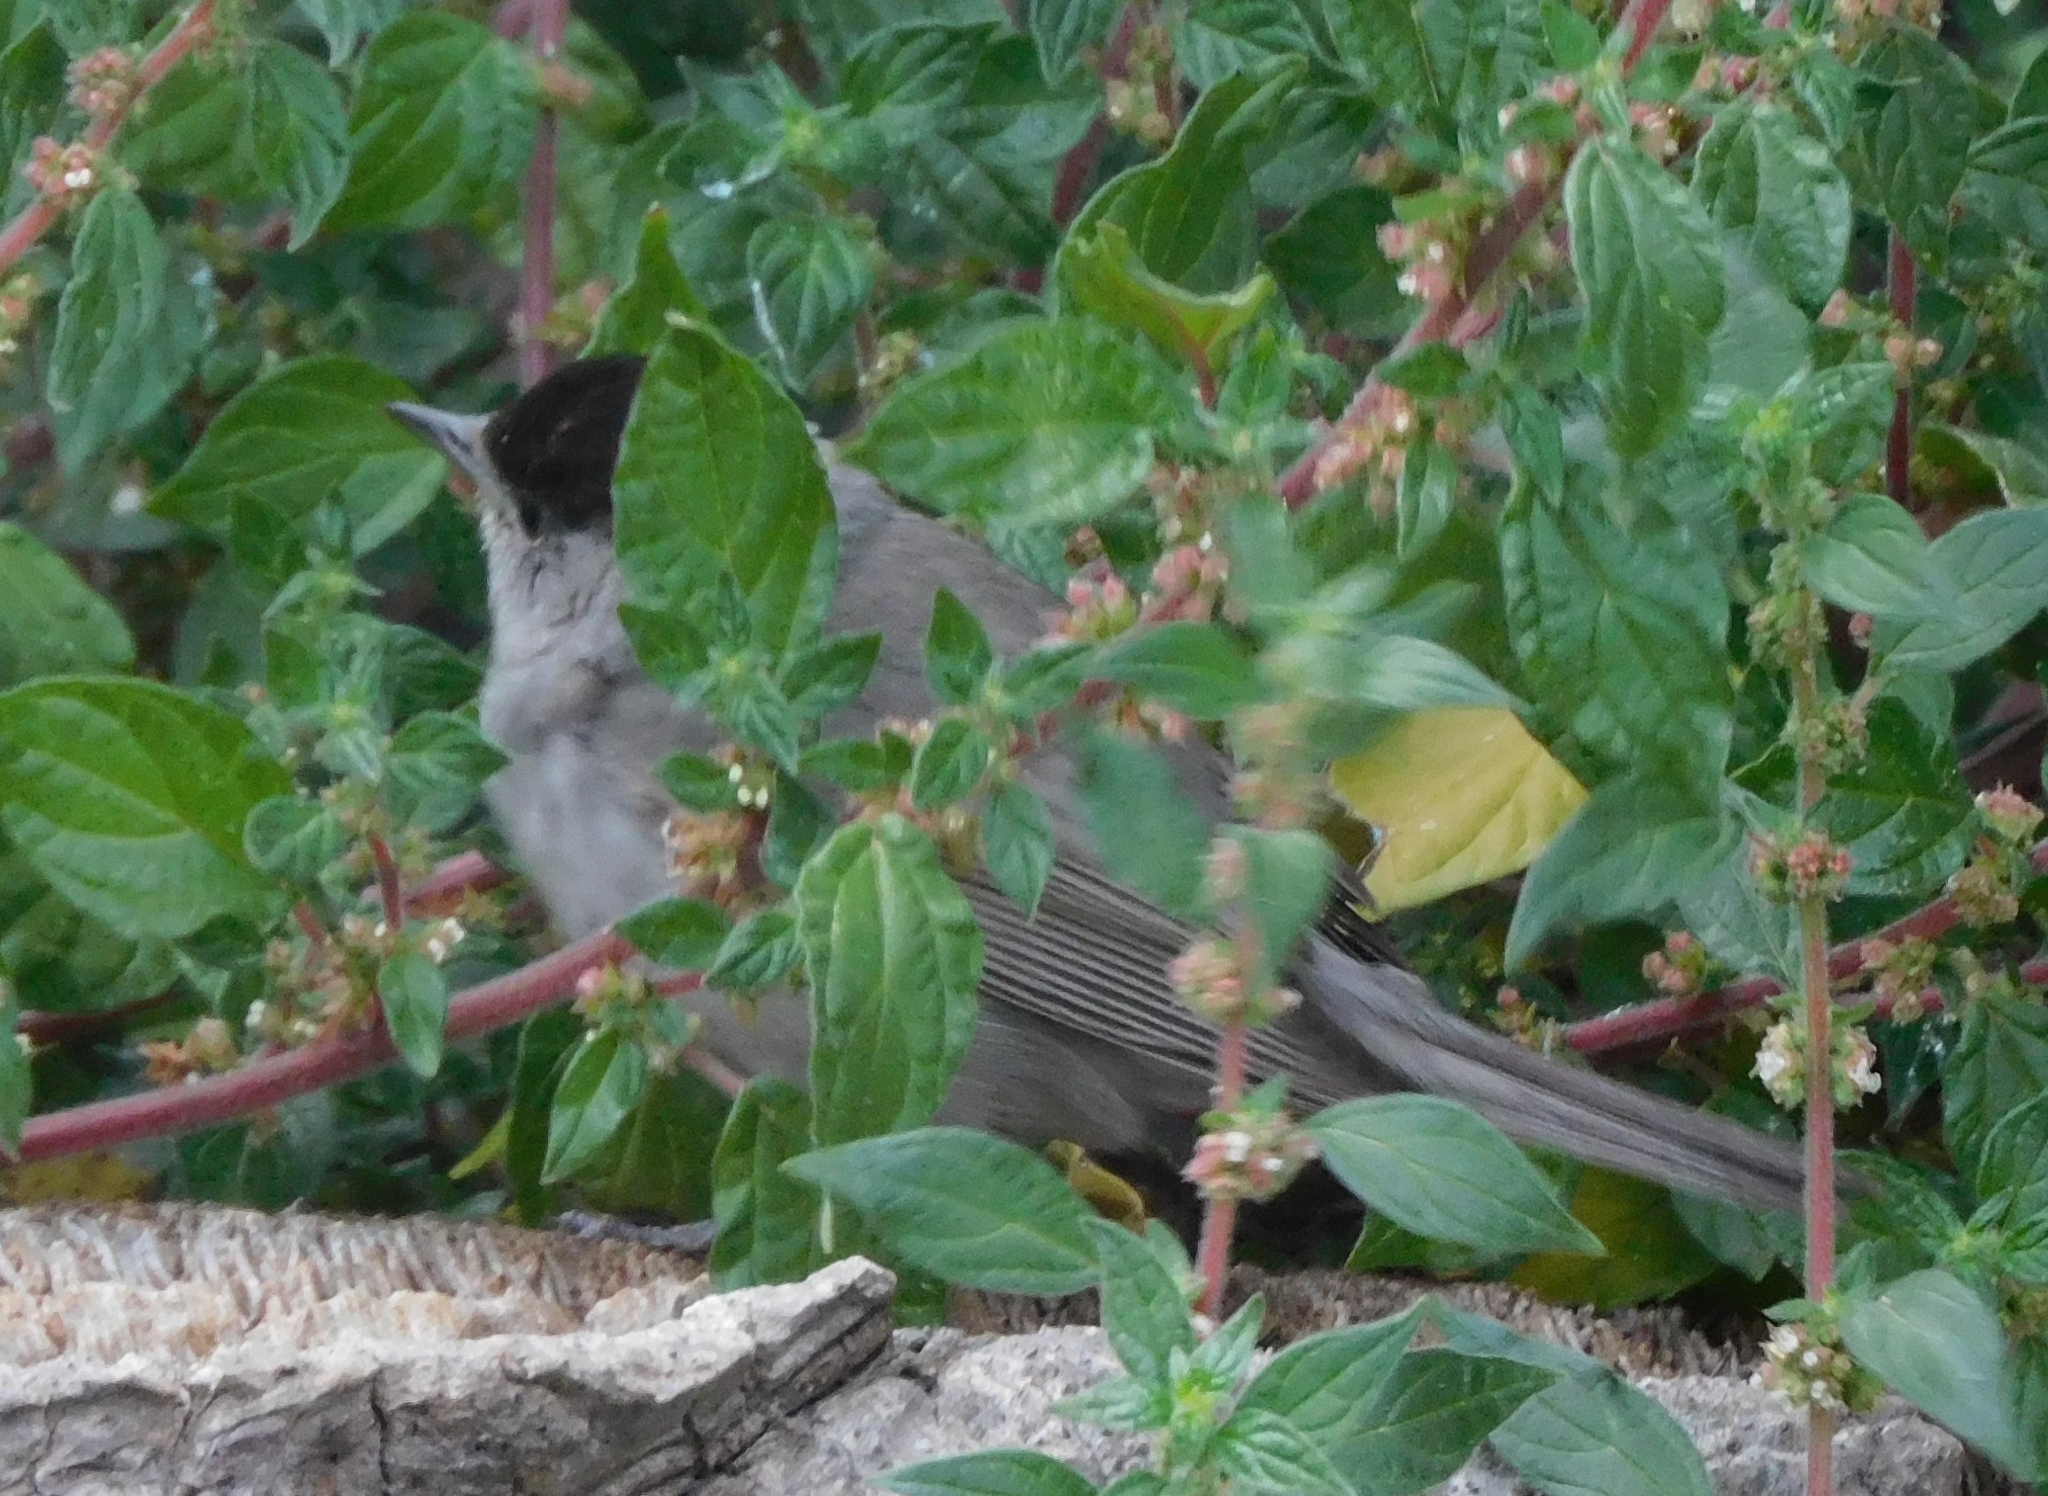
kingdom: Animalia
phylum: Chordata
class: Aves
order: Passeriformes
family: Sylviidae
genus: Sylvia
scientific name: Sylvia atricapilla
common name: Eurasian blackcap
